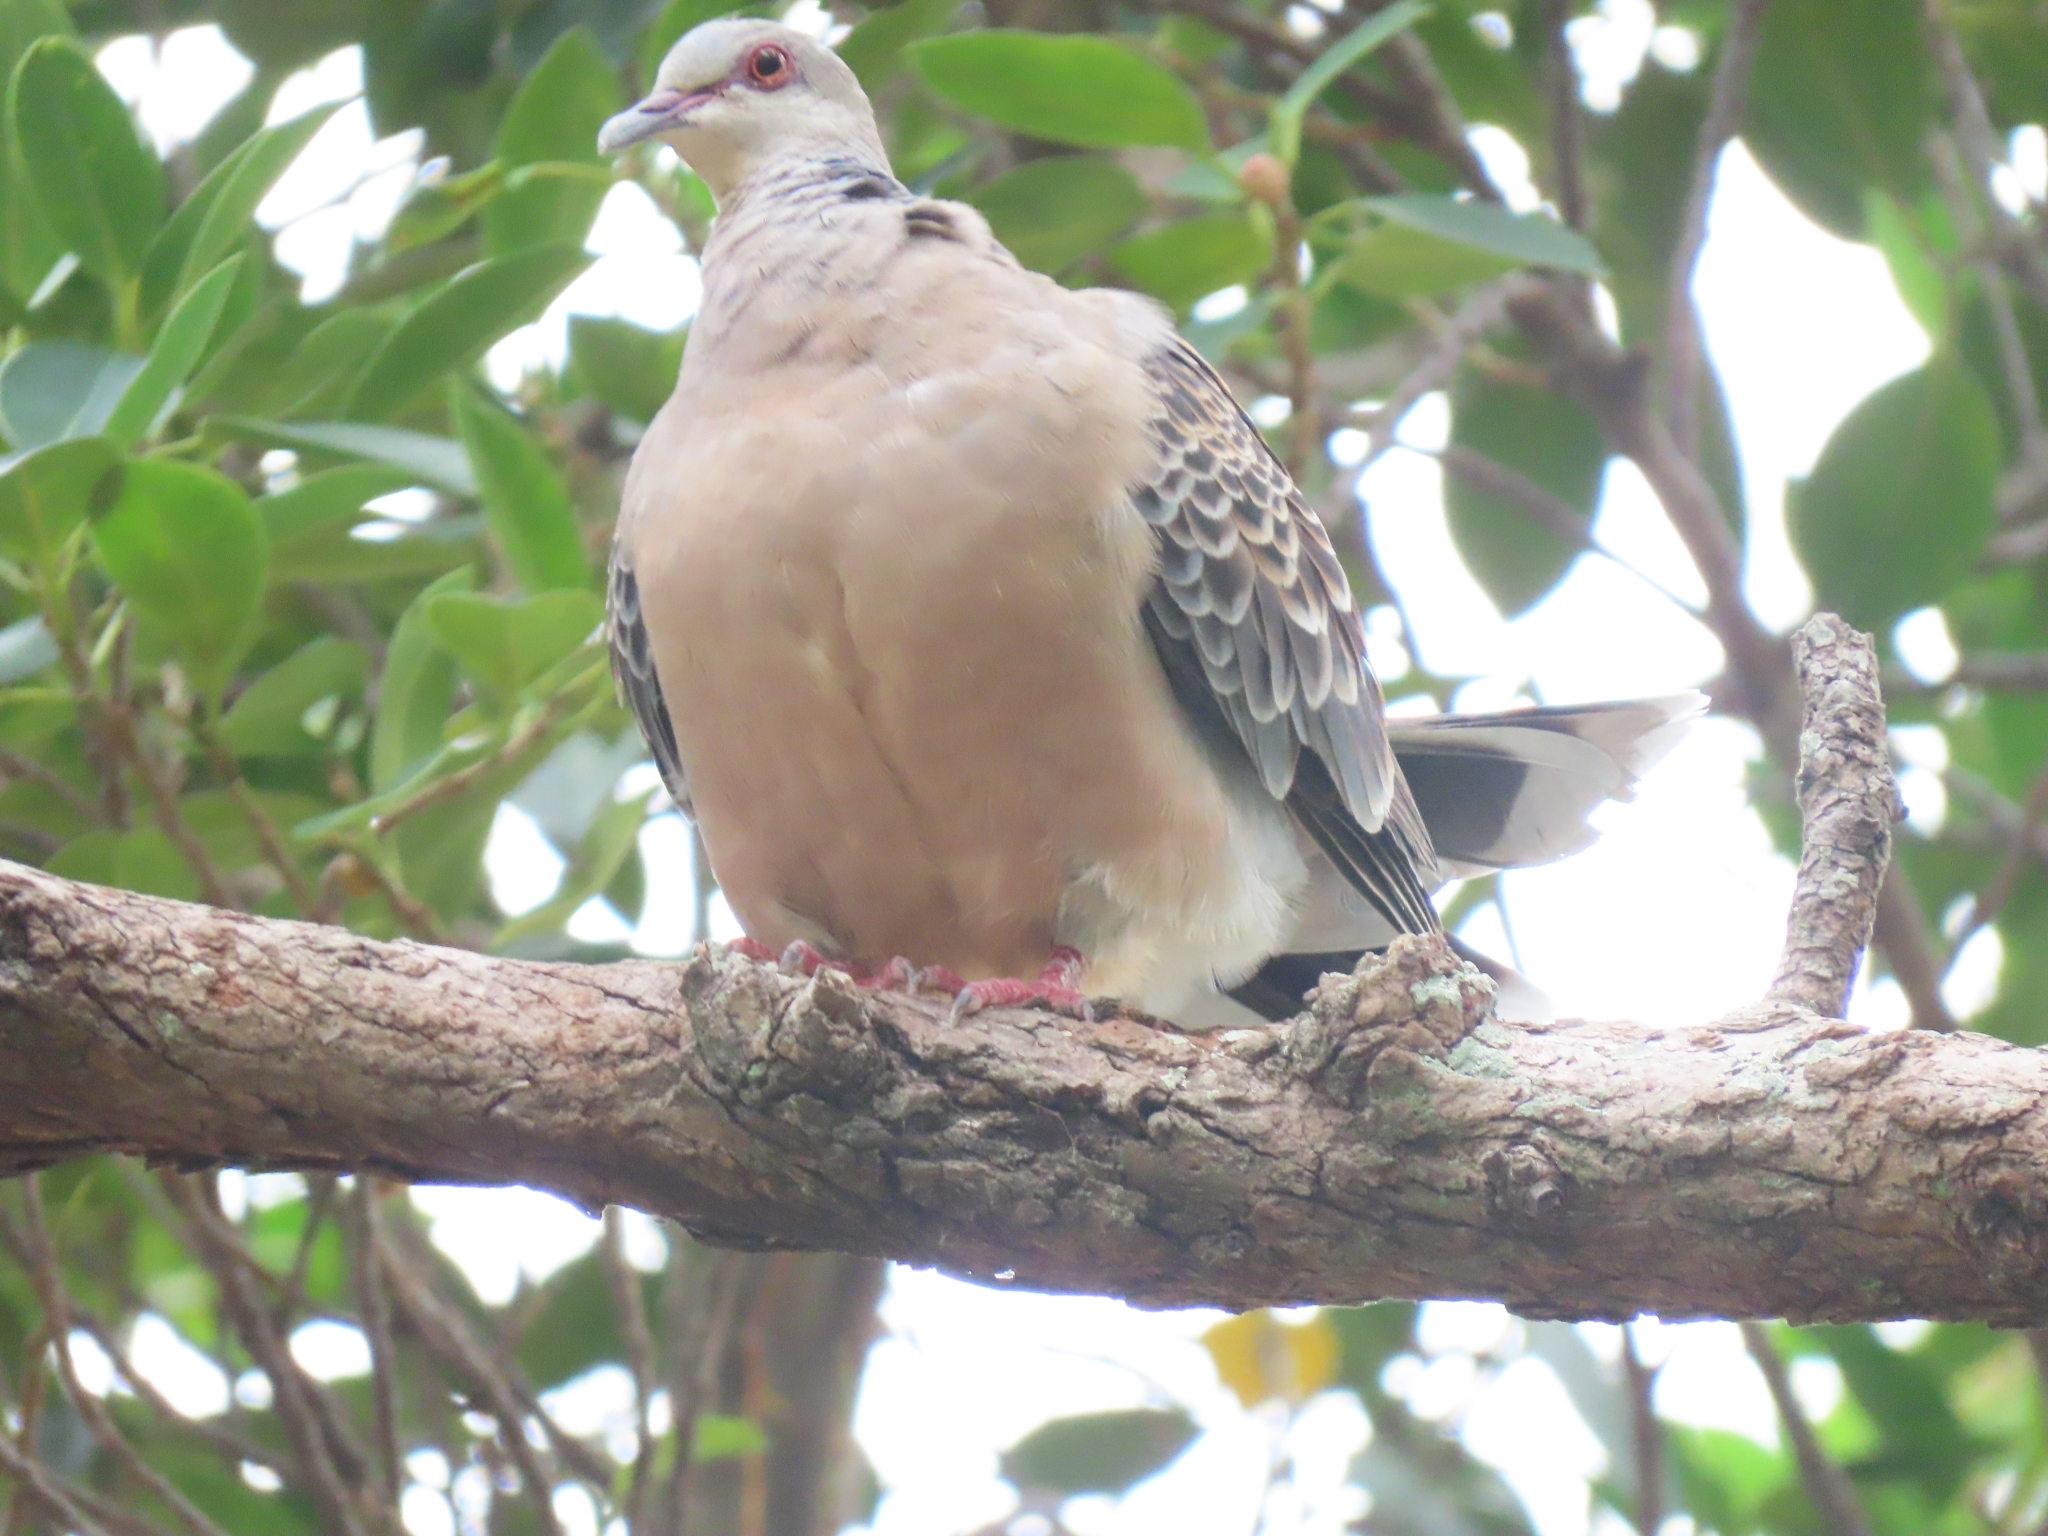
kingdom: Animalia
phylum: Chordata
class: Aves
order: Columbiformes
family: Columbidae
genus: Streptopelia
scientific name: Streptopelia orientalis
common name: Oriental turtle dove
